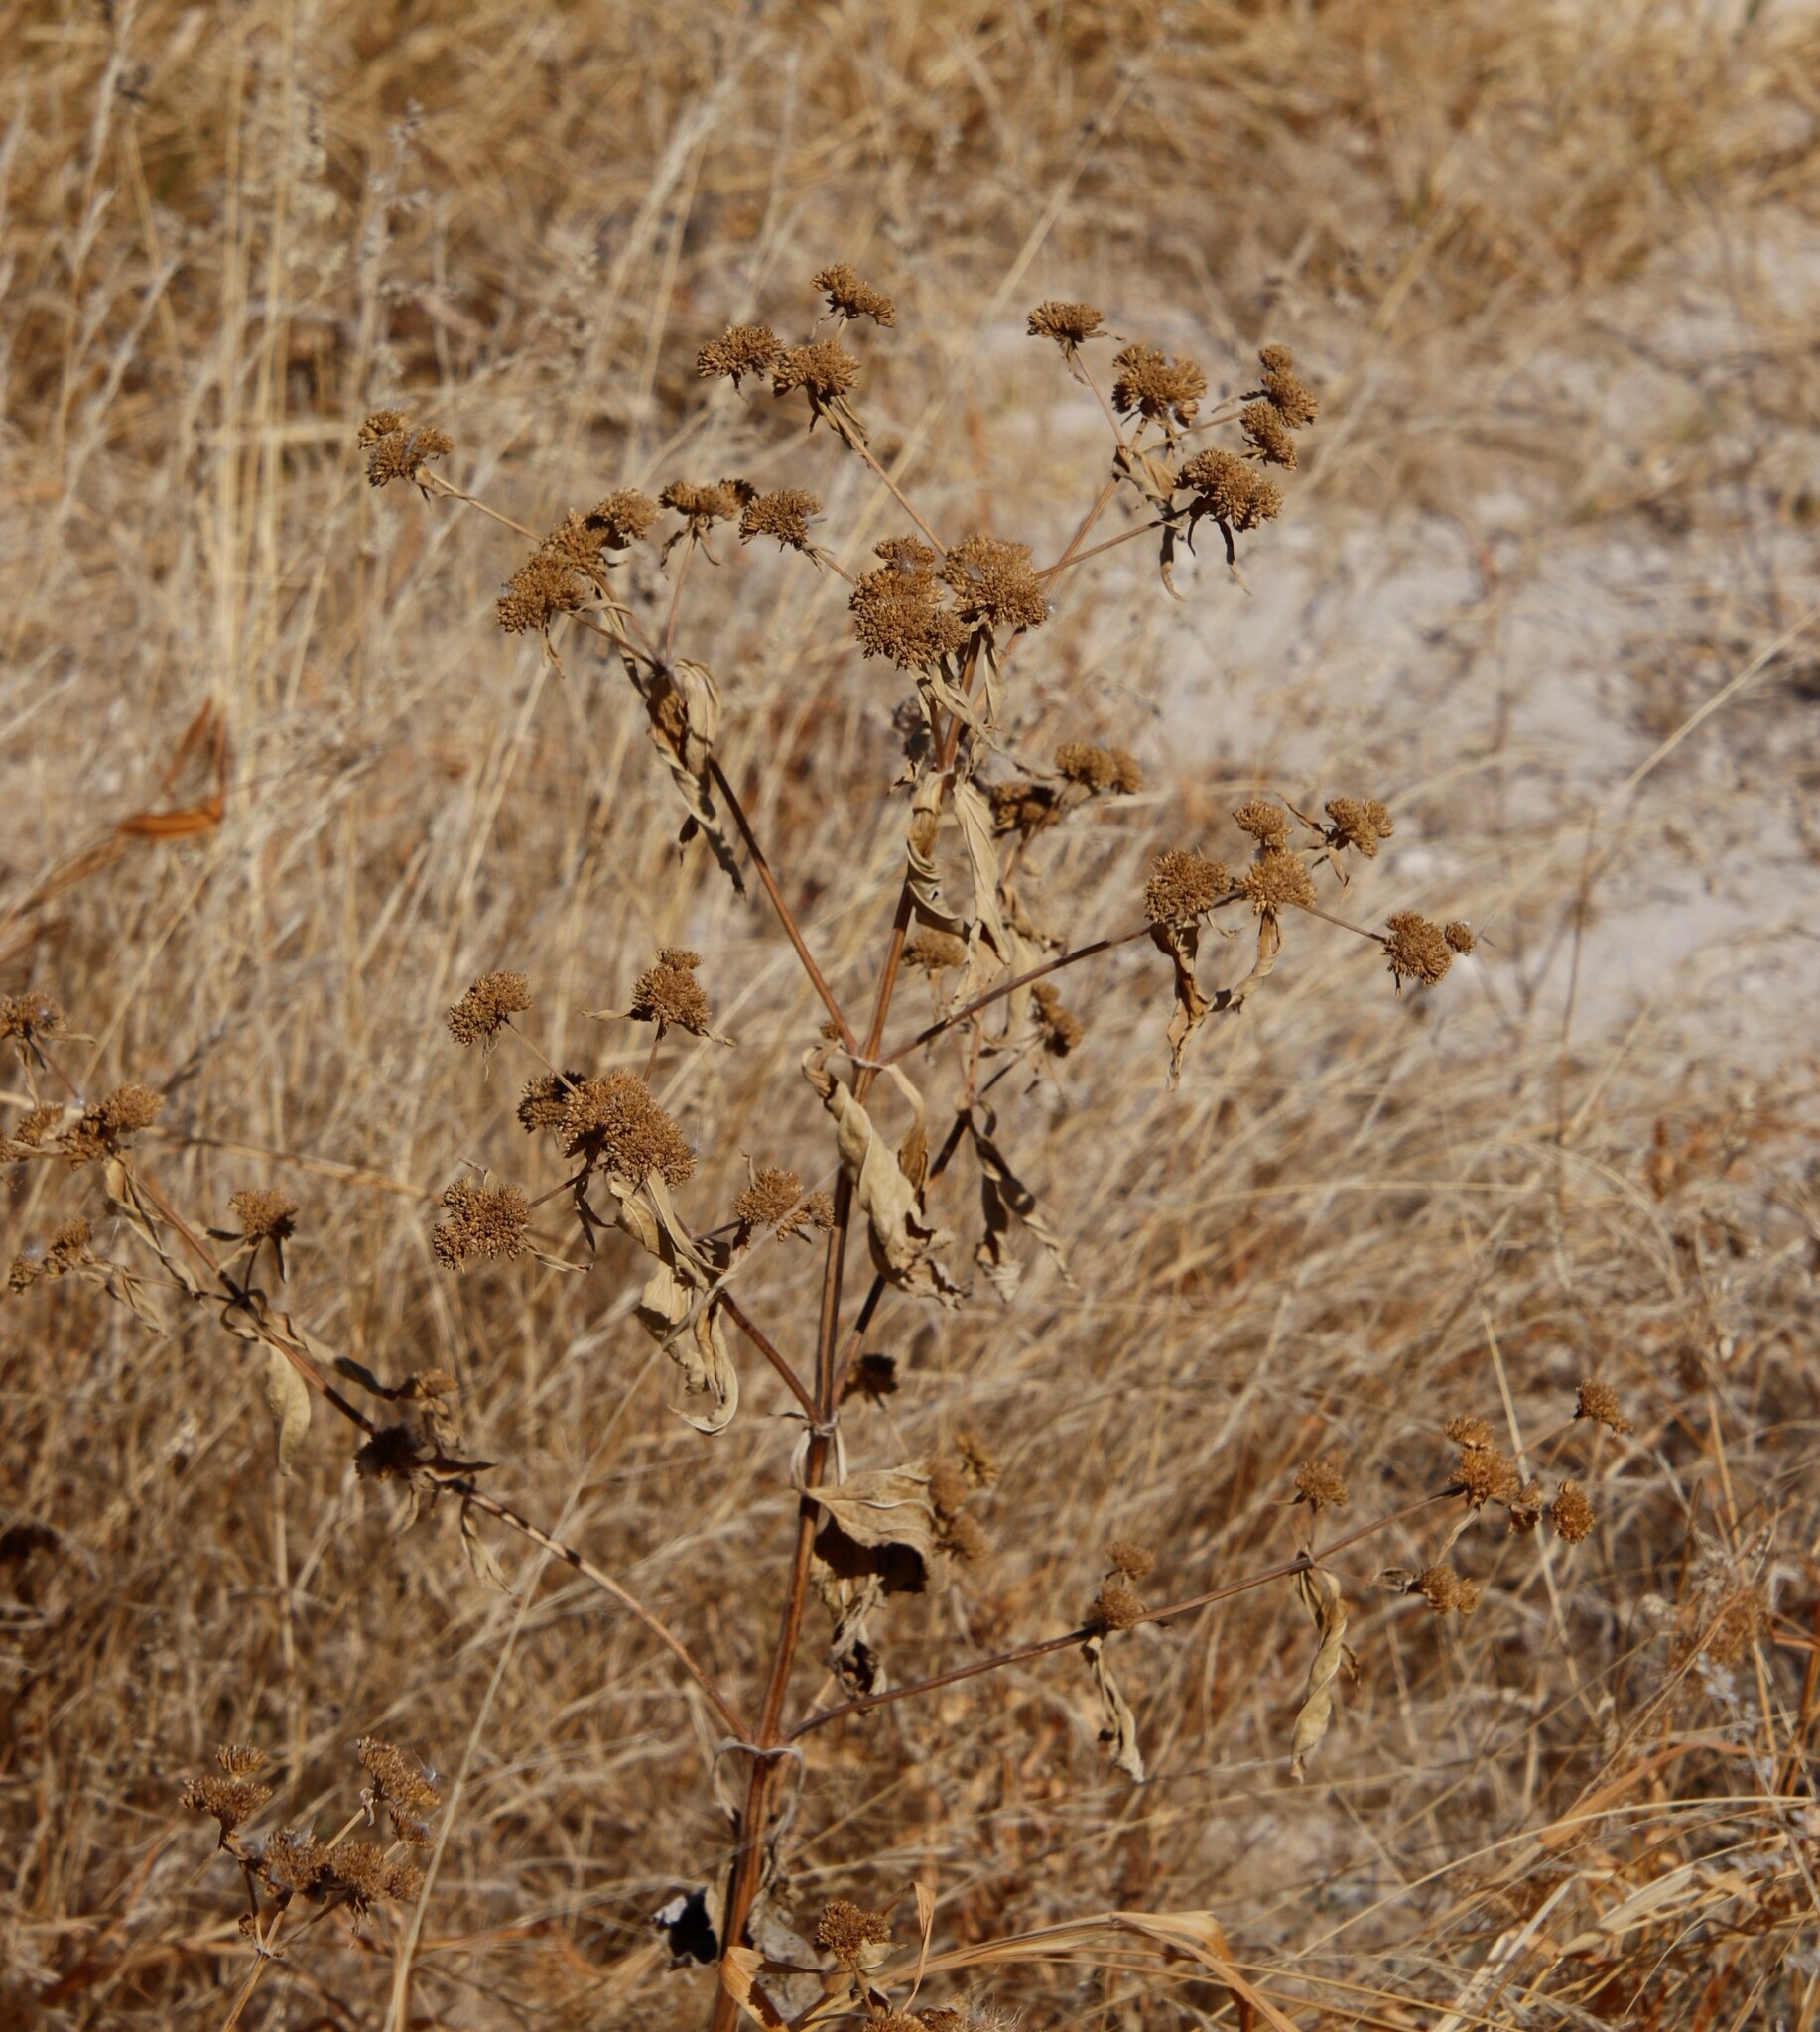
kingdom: Plantae
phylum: Tracheophyta
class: Magnoliopsida
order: Asterales
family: Asteraceae
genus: Flaveria
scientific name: Flaveria bidentis
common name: Coastal plain yellowtops
